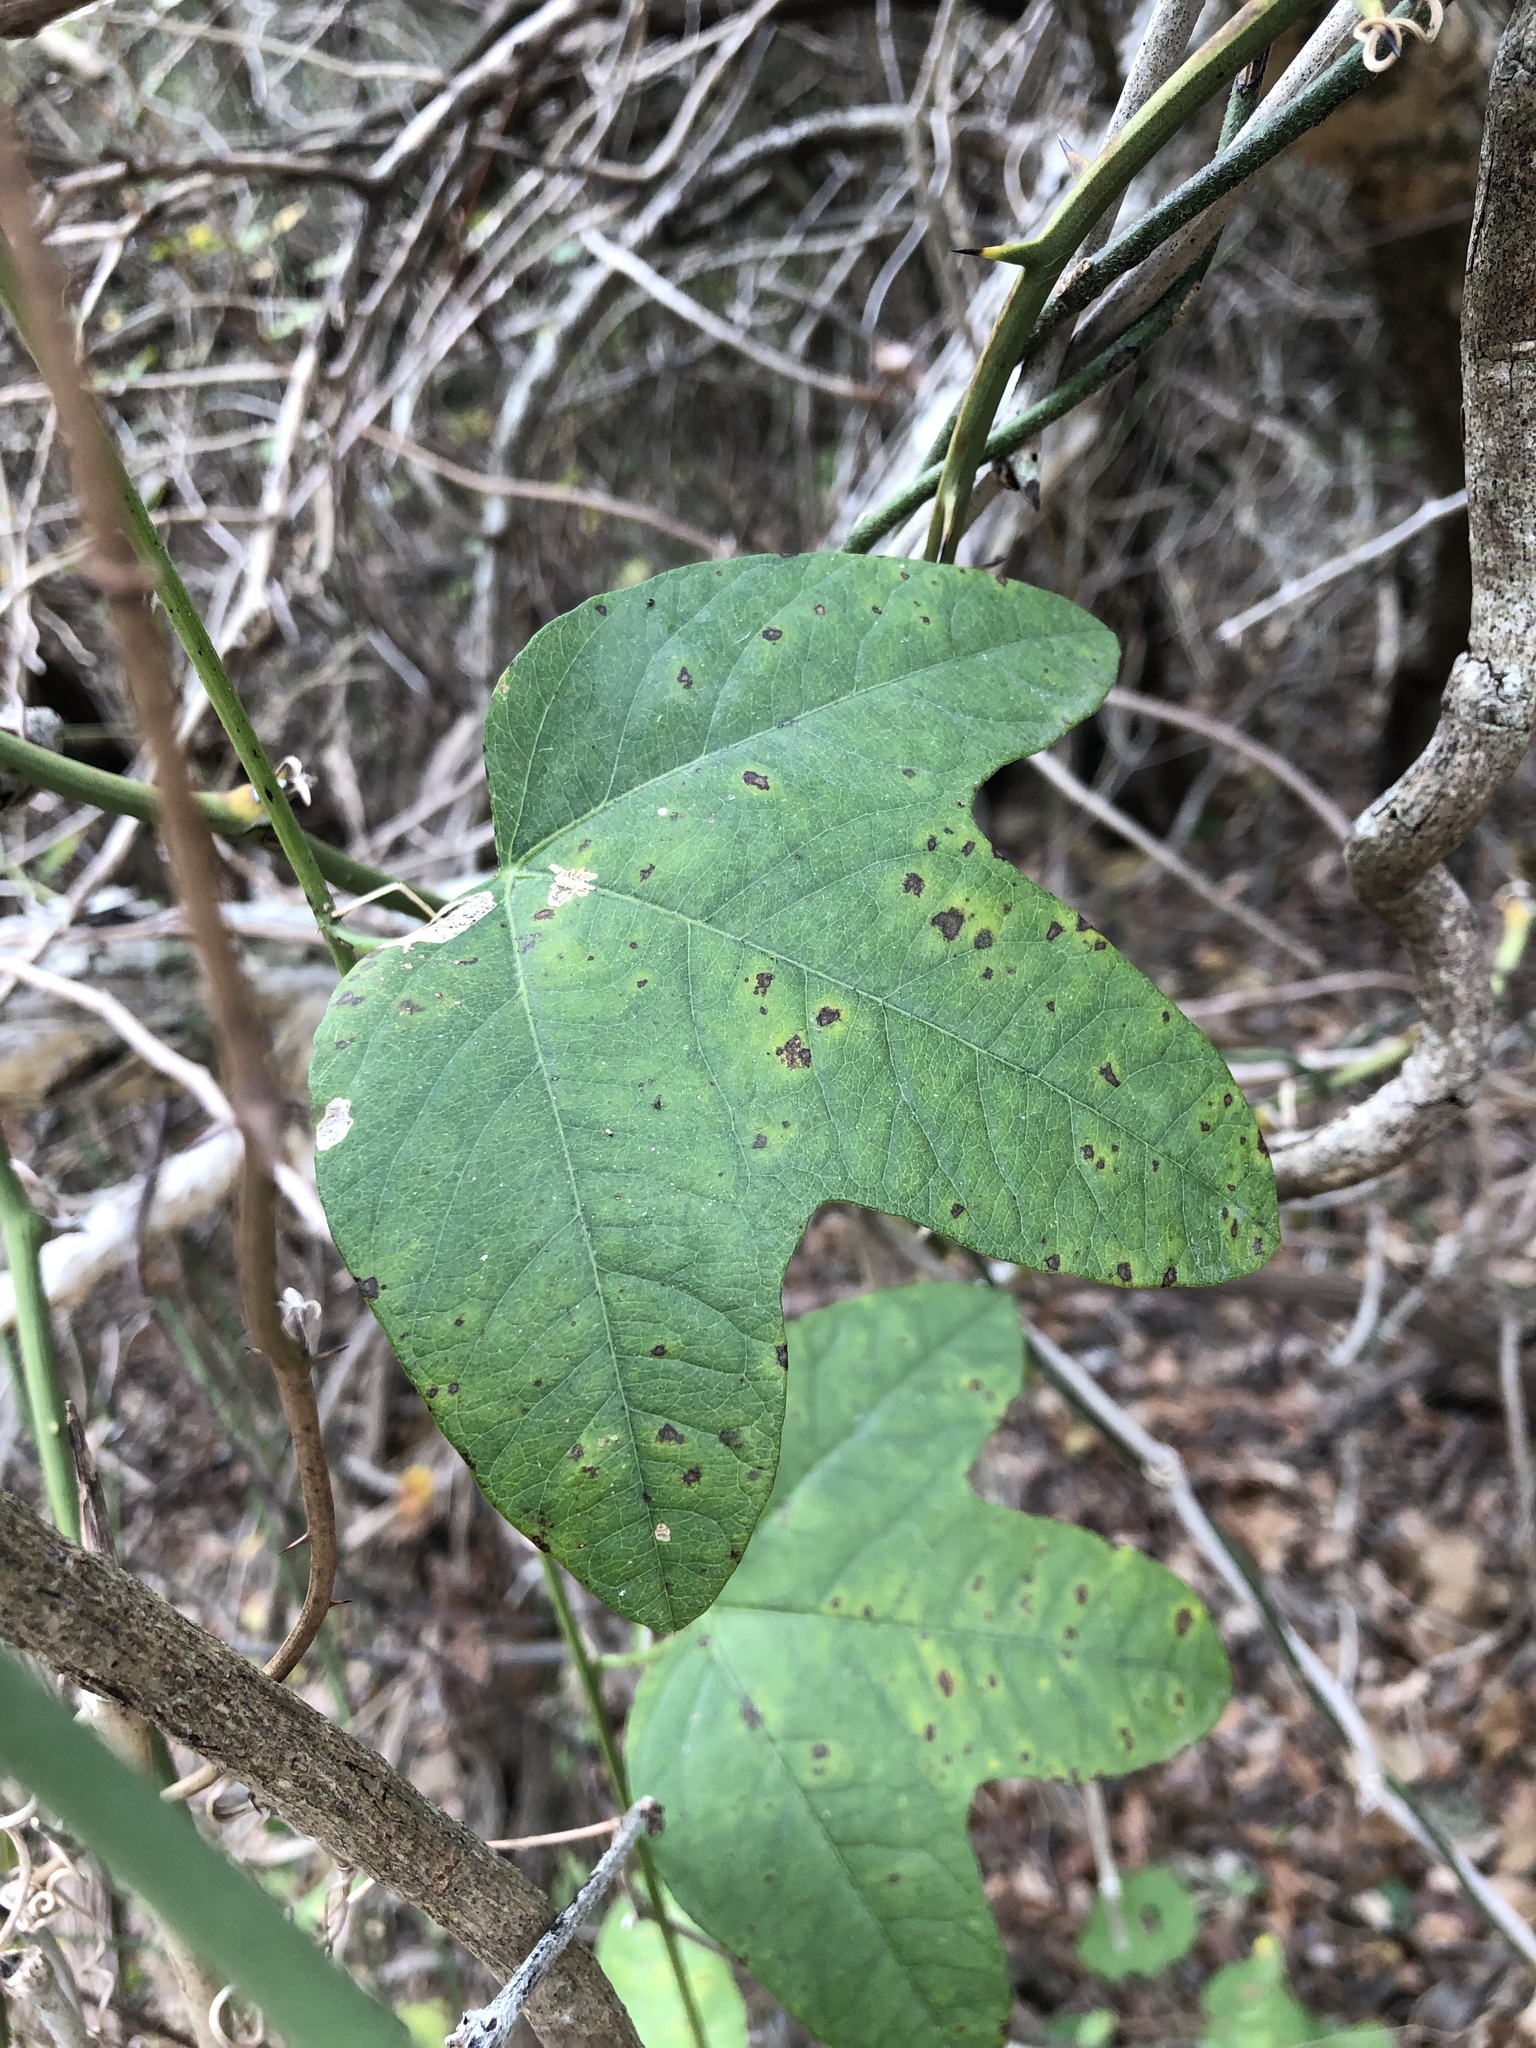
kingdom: Plantae
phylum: Tracheophyta
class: Magnoliopsida
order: Malpighiales
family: Passifloraceae
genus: Passiflora
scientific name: Passiflora lutea
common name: Yellow passionflower
